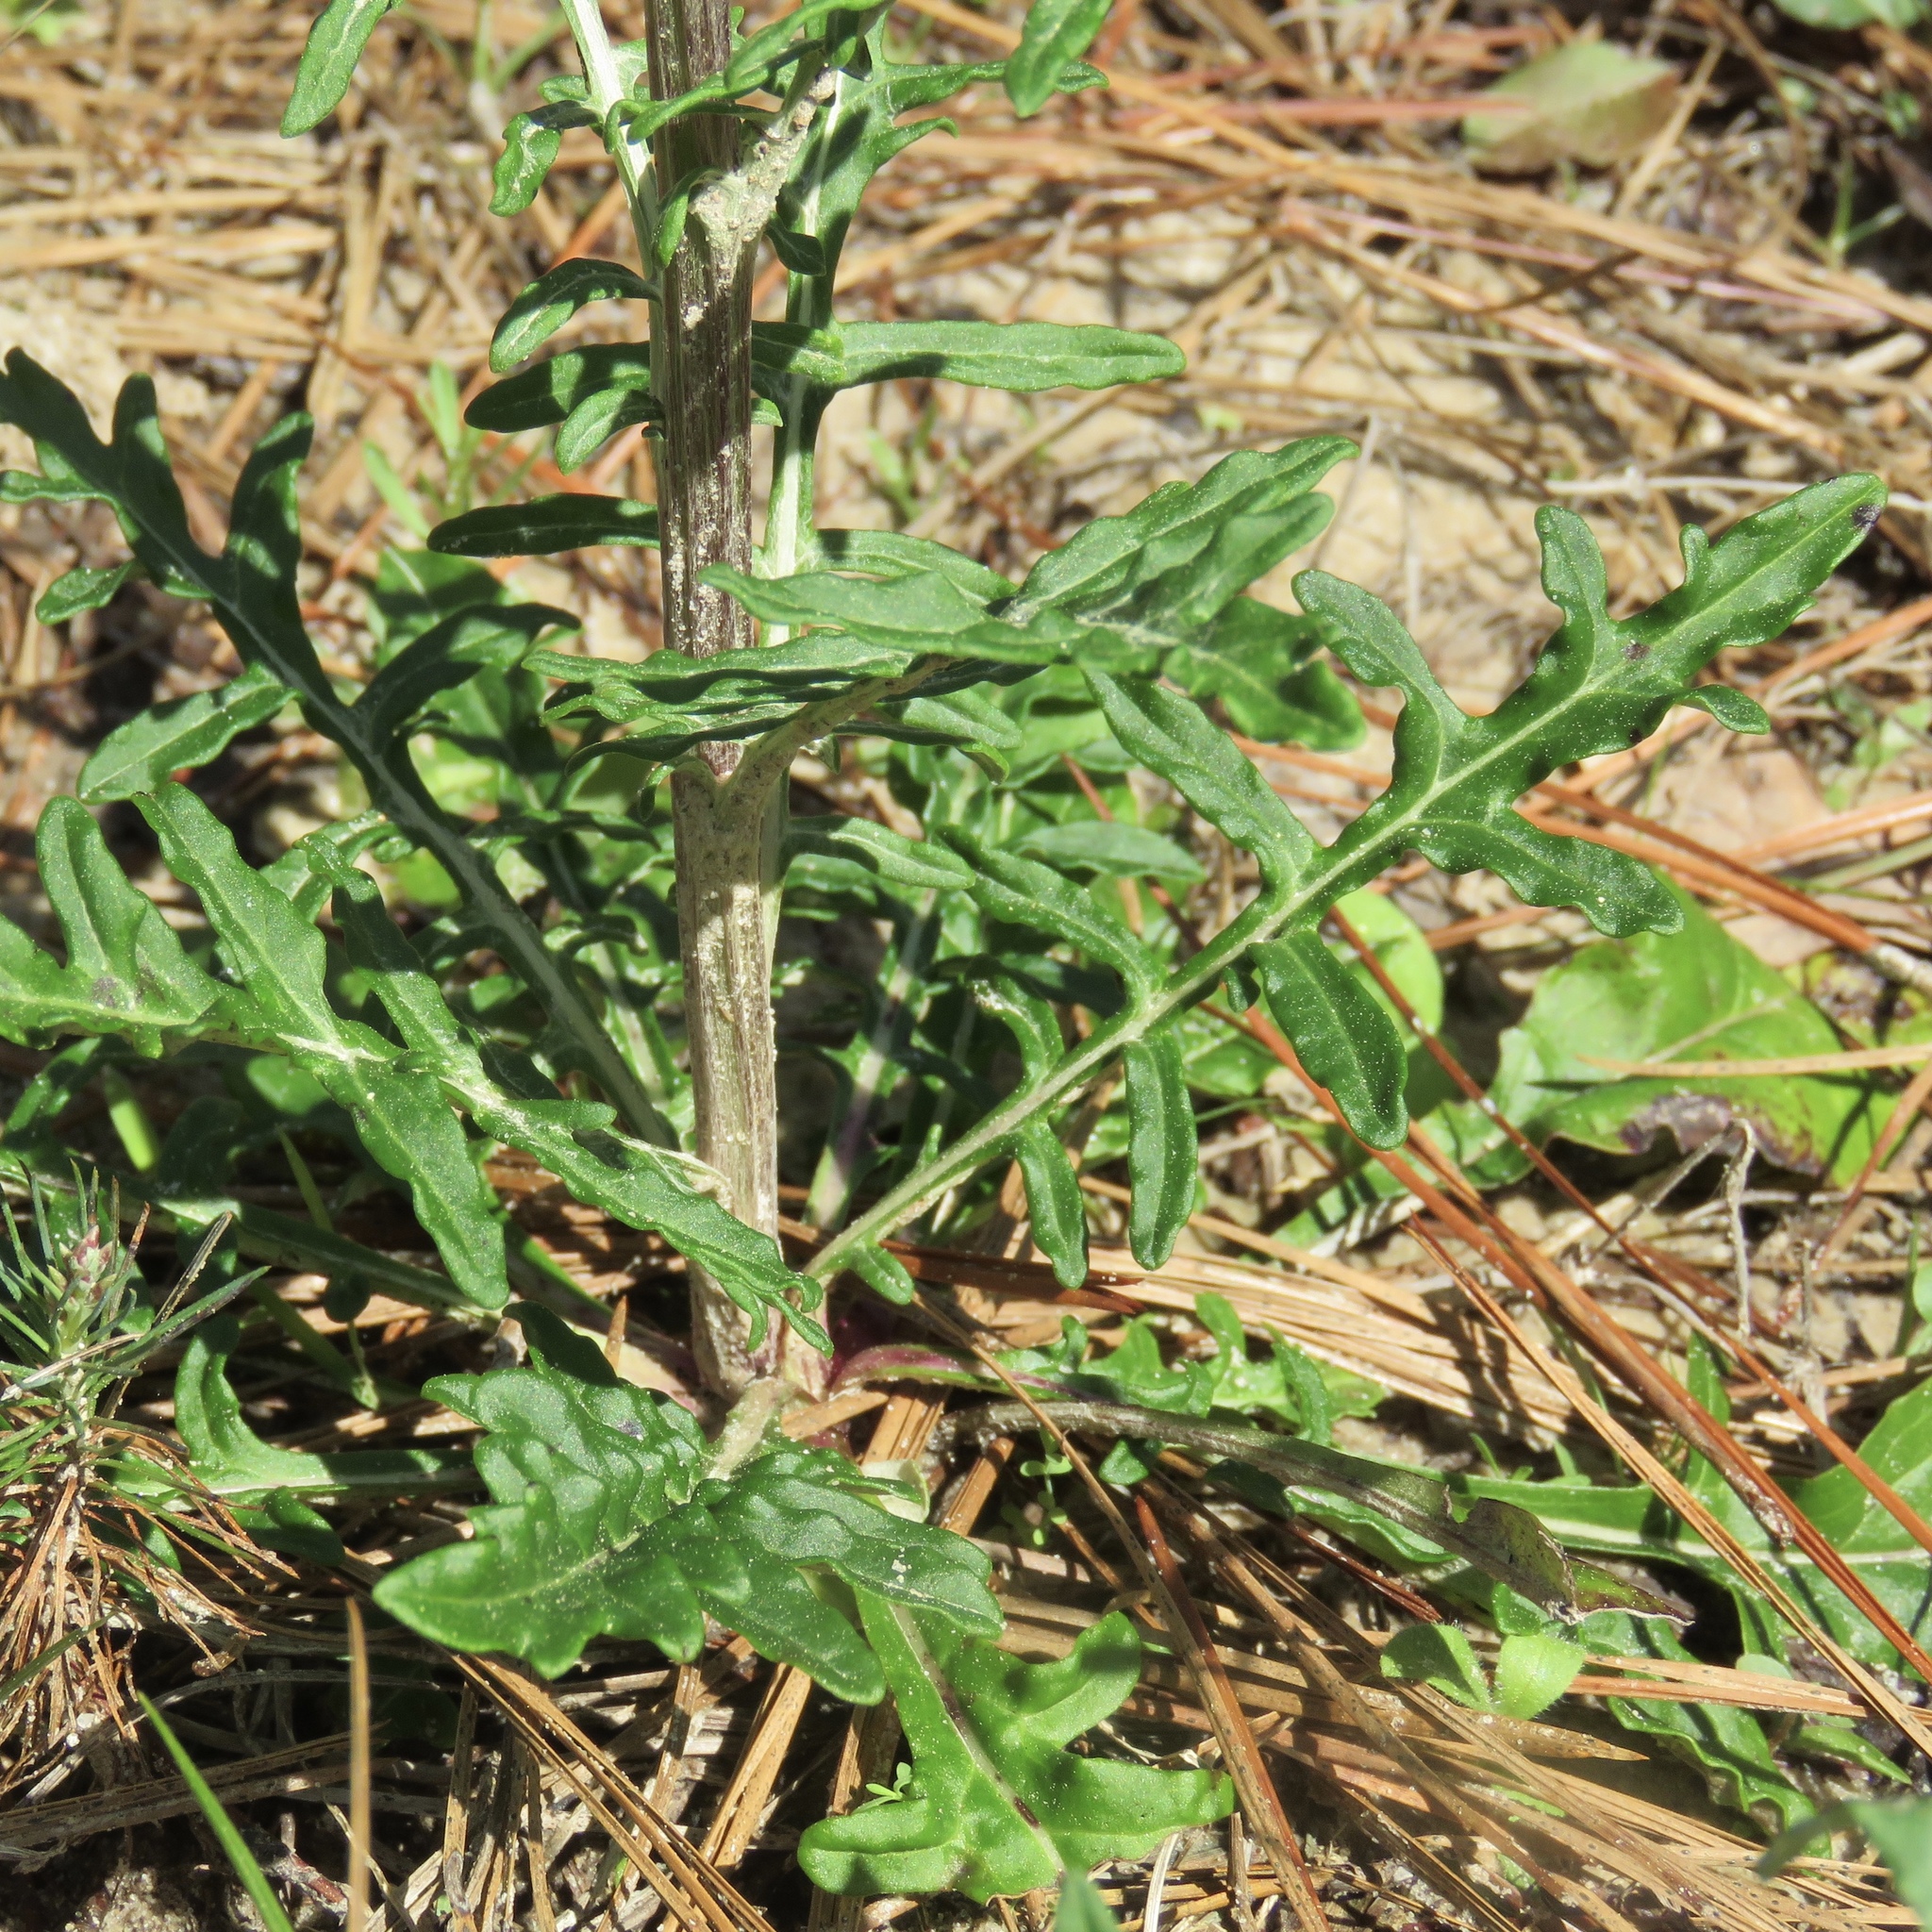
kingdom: Plantae
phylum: Tracheophyta
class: Magnoliopsida
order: Asterales
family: Asteraceae
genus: Hymenopappus
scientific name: Hymenopappus artemisiifolius
